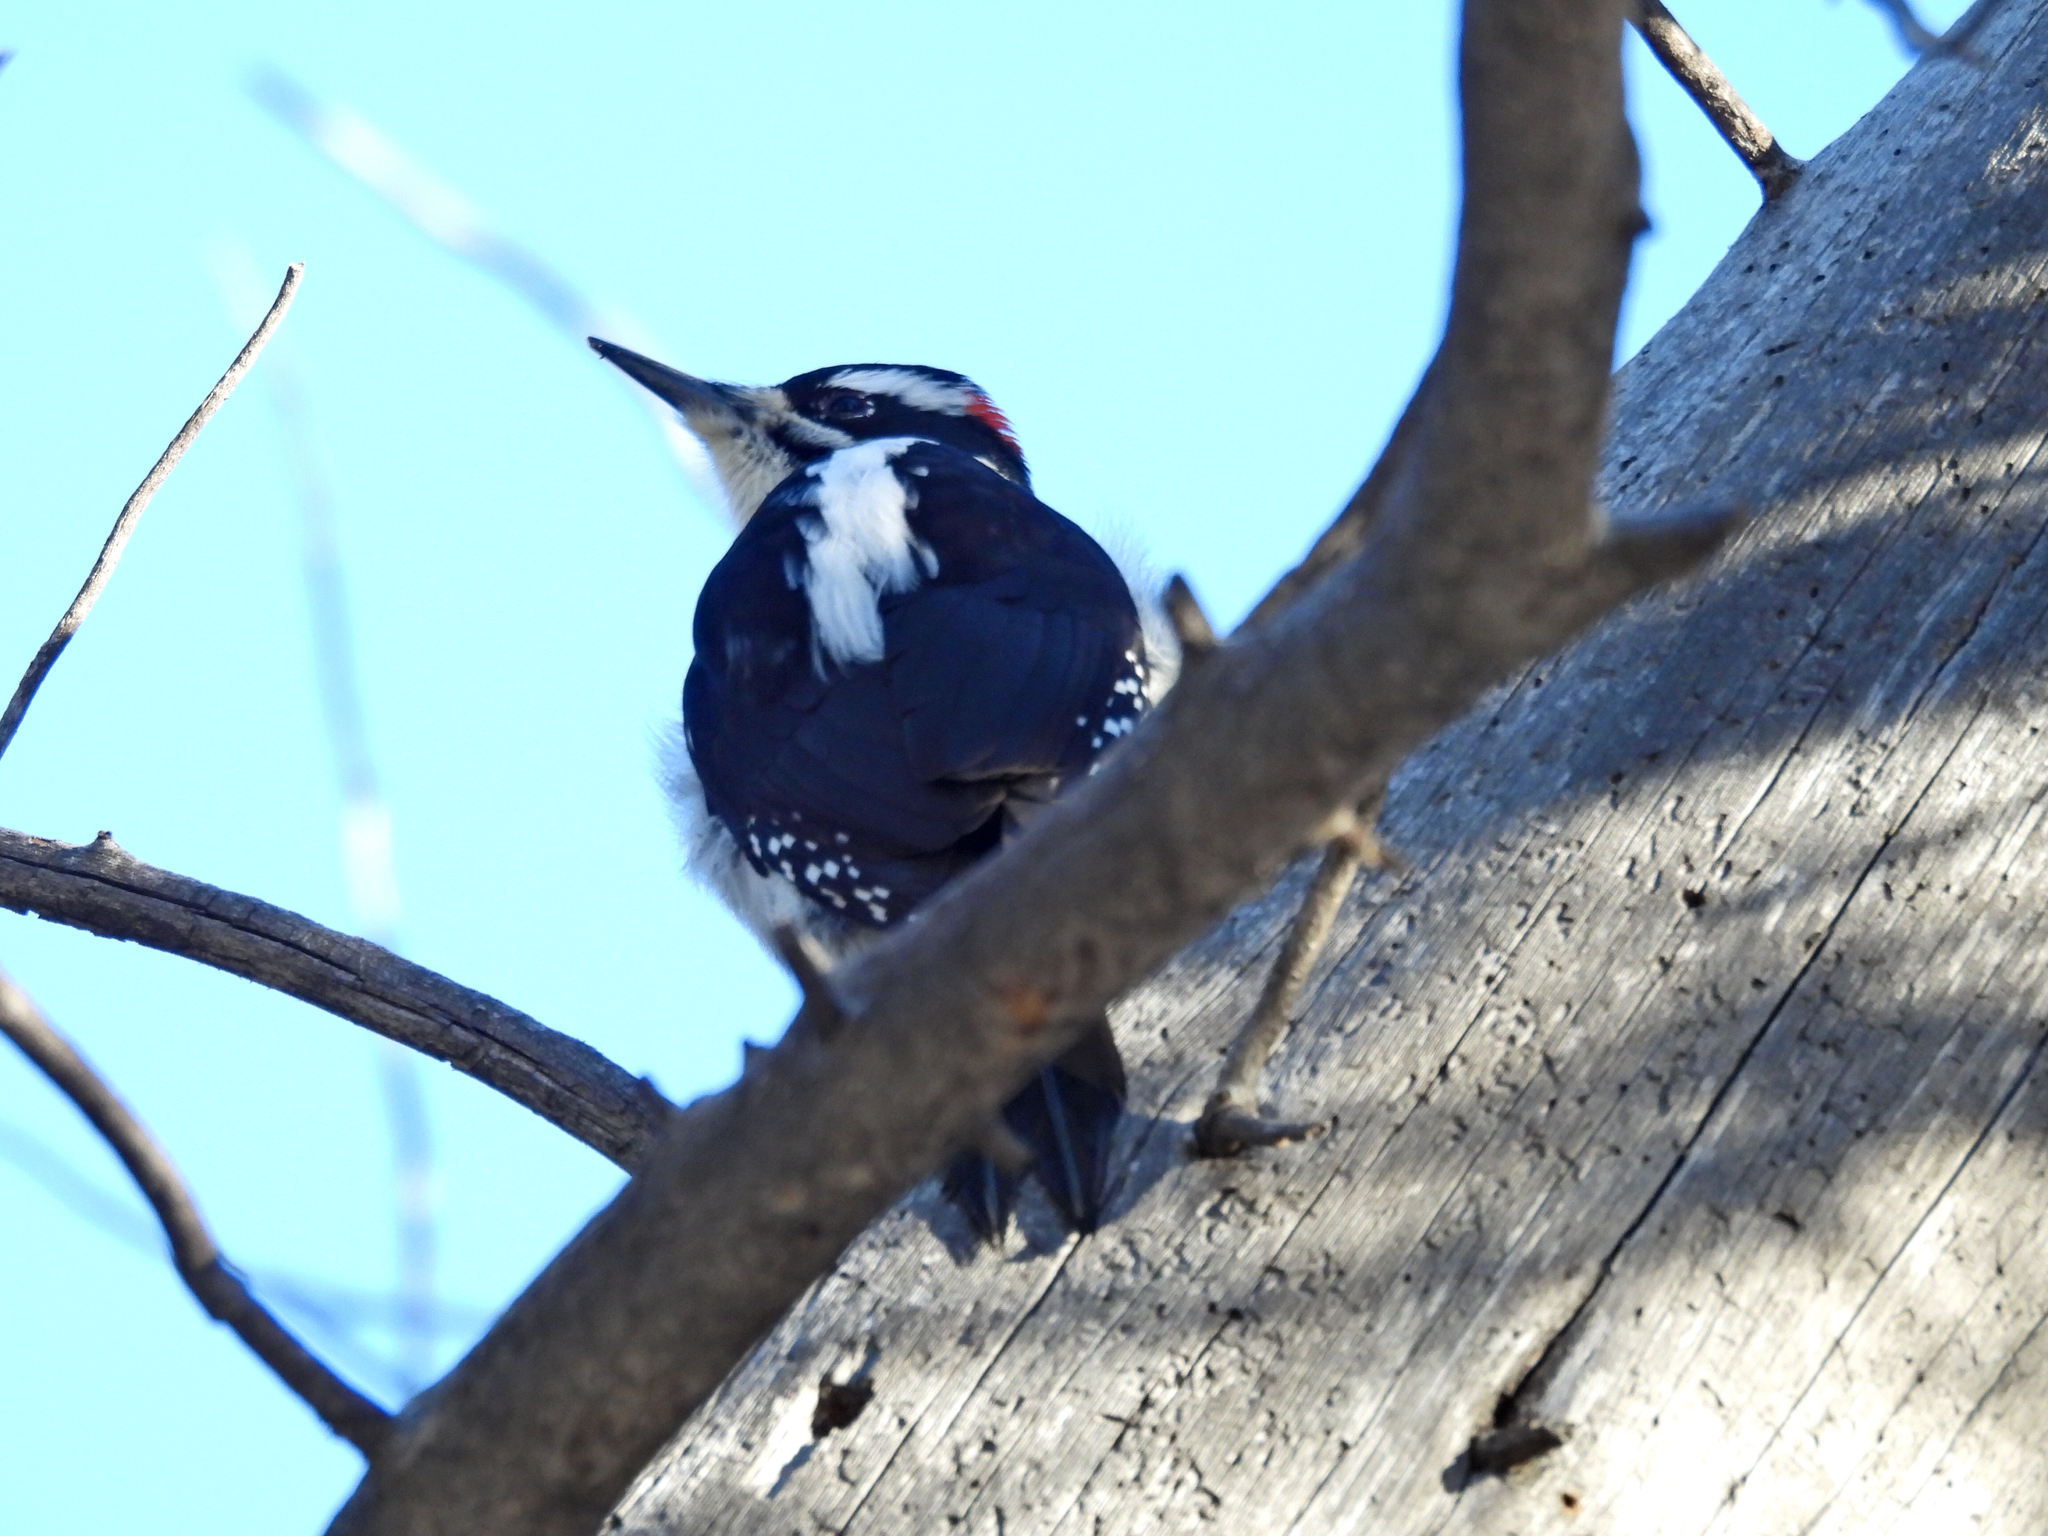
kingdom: Animalia
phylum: Chordata
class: Aves
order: Piciformes
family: Picidae
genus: Leuconotopicus
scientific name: Leuconotopicus villosus
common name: Hairy woodpecker
